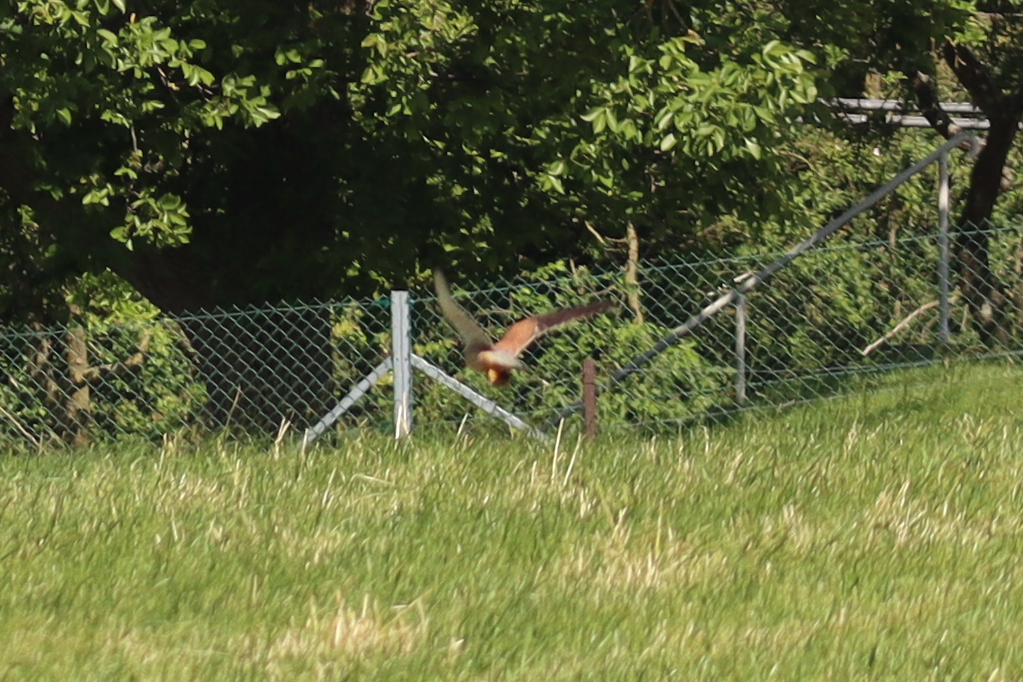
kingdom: Animalia
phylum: Chordata
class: Aves
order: Falconiformes
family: Falconidae
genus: Falco
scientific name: Falco tinnunculus
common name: Common kestrel
